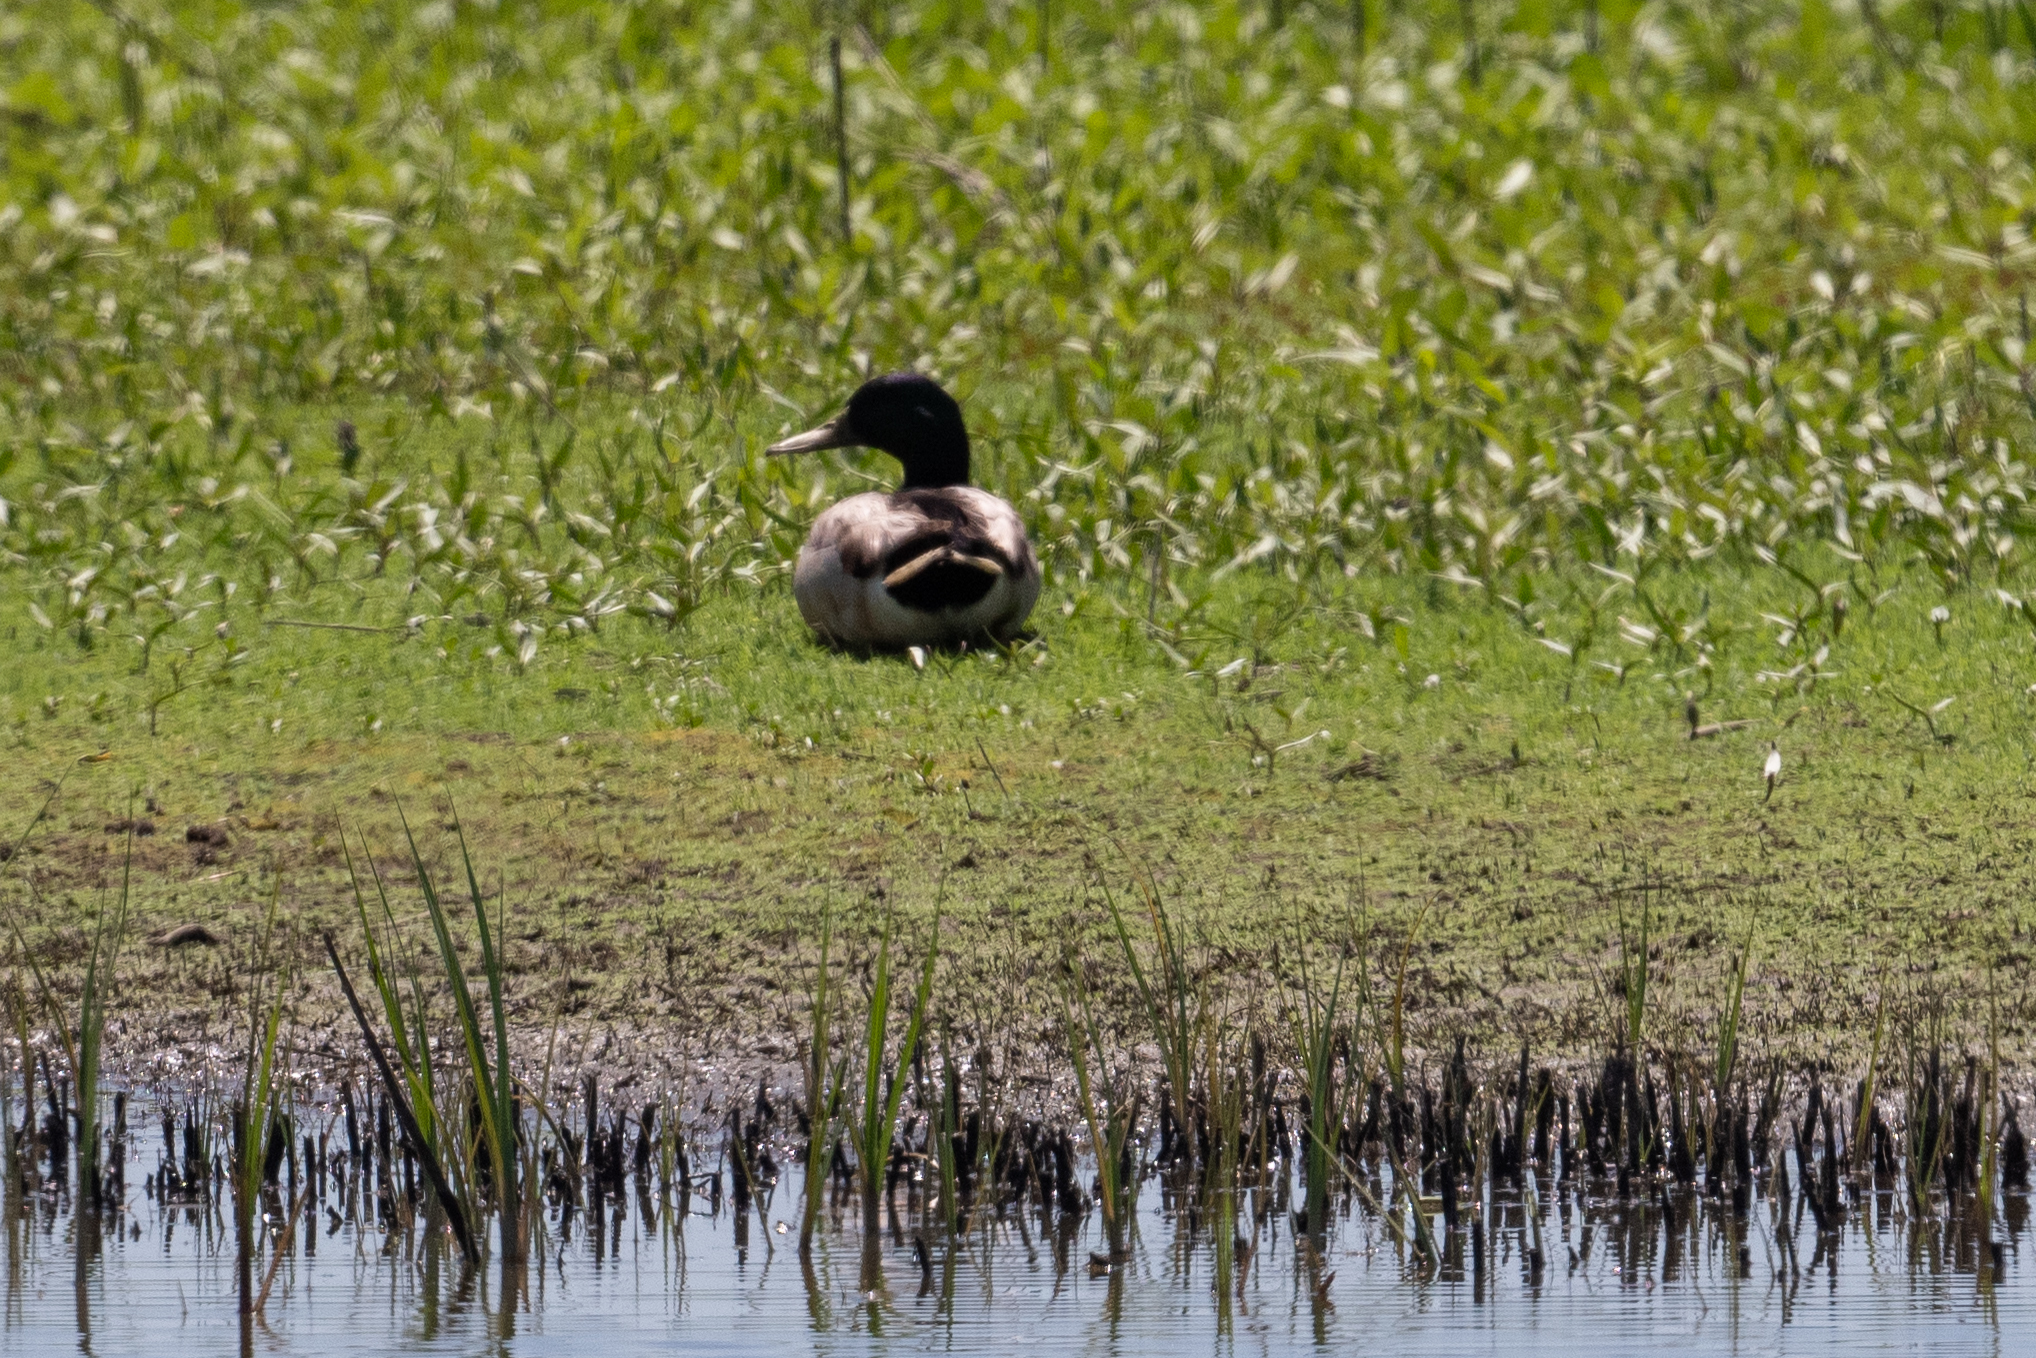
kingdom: Animalia
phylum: Chordata
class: Aves
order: Anseriformes
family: Anatidae
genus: Anas
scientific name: Anas platyrhynchos
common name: Mallard
